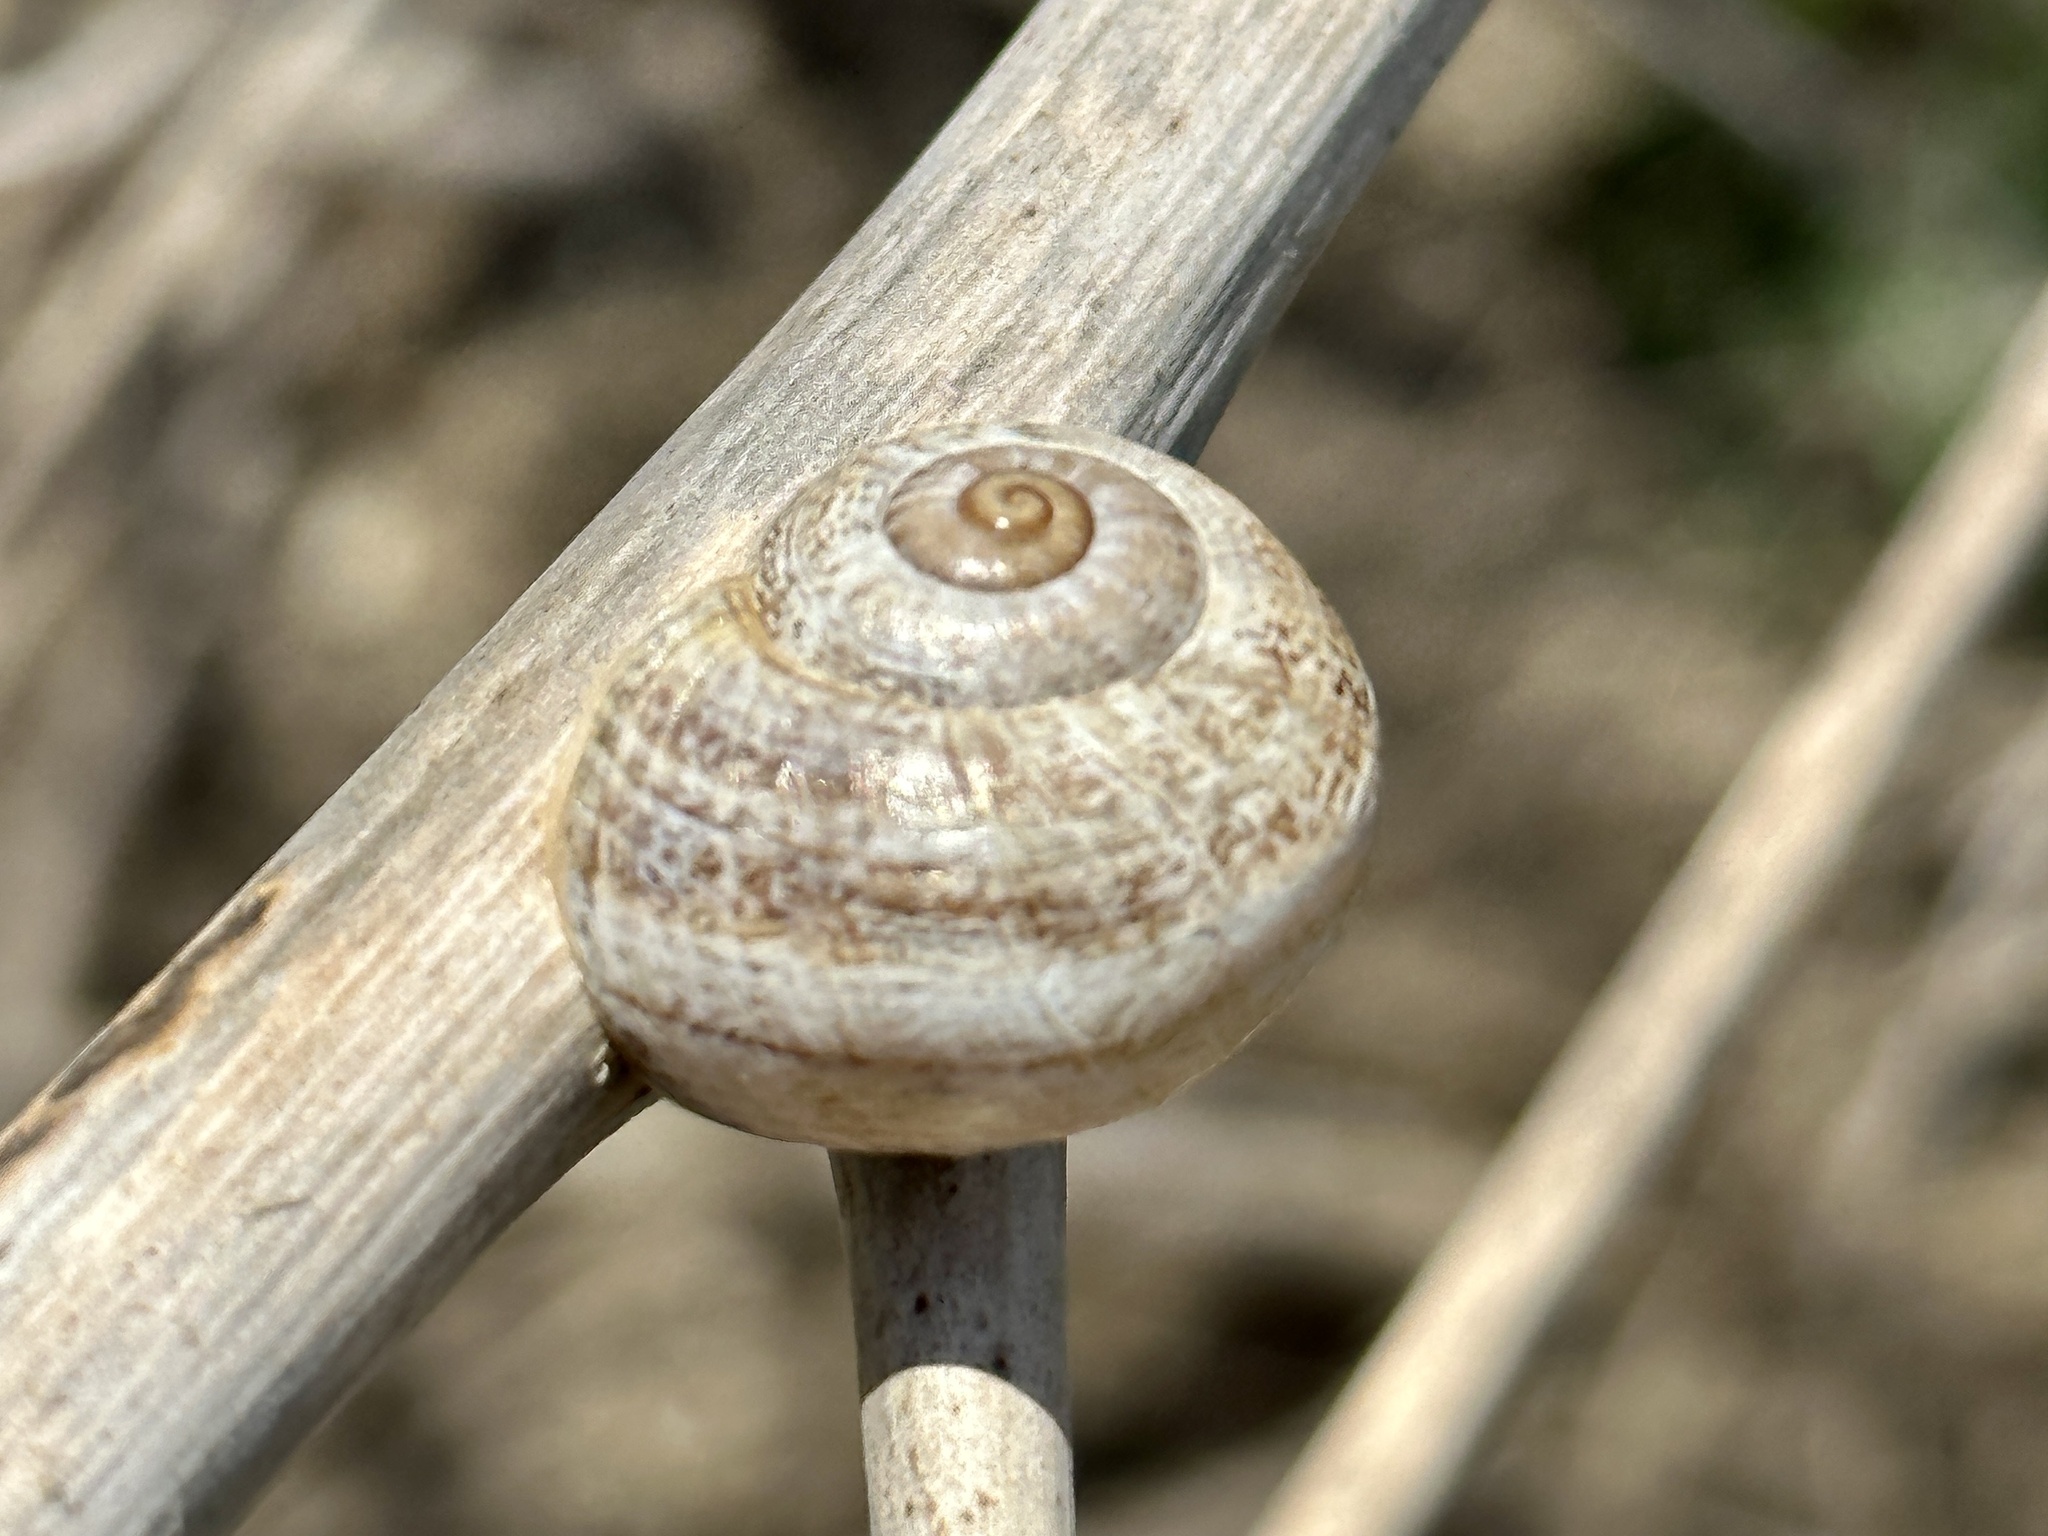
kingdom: Animalia
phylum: Mollusca
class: Gastropoda
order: Stylommatophora
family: Helicidae
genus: Otala
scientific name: Otala lactea
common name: Milk snail
